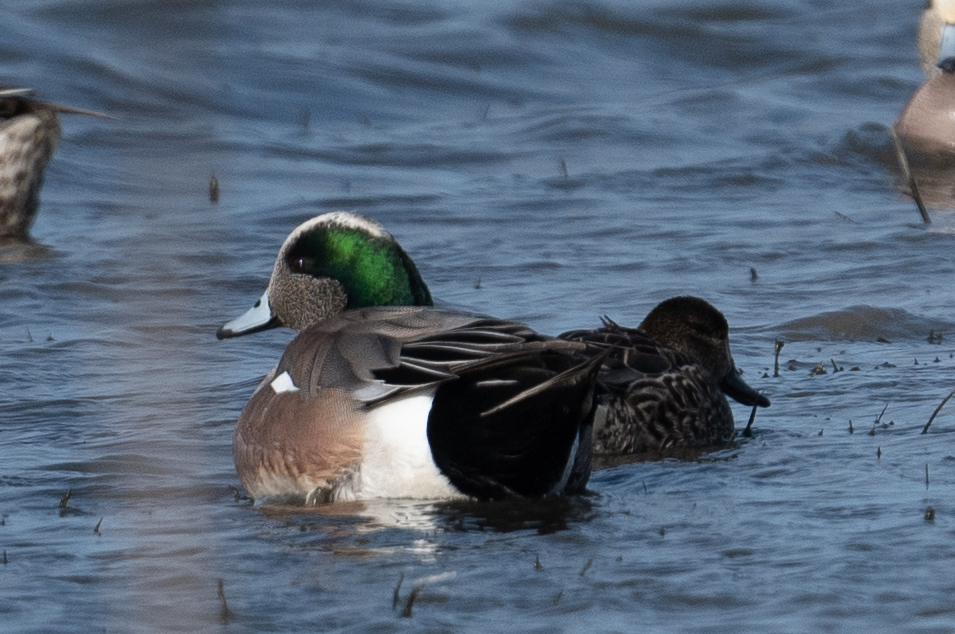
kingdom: Animalia
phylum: Chordata
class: Aves
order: Anseriformes
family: Anatidae
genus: Mareca
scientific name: Mareca americana
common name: American wigeon
